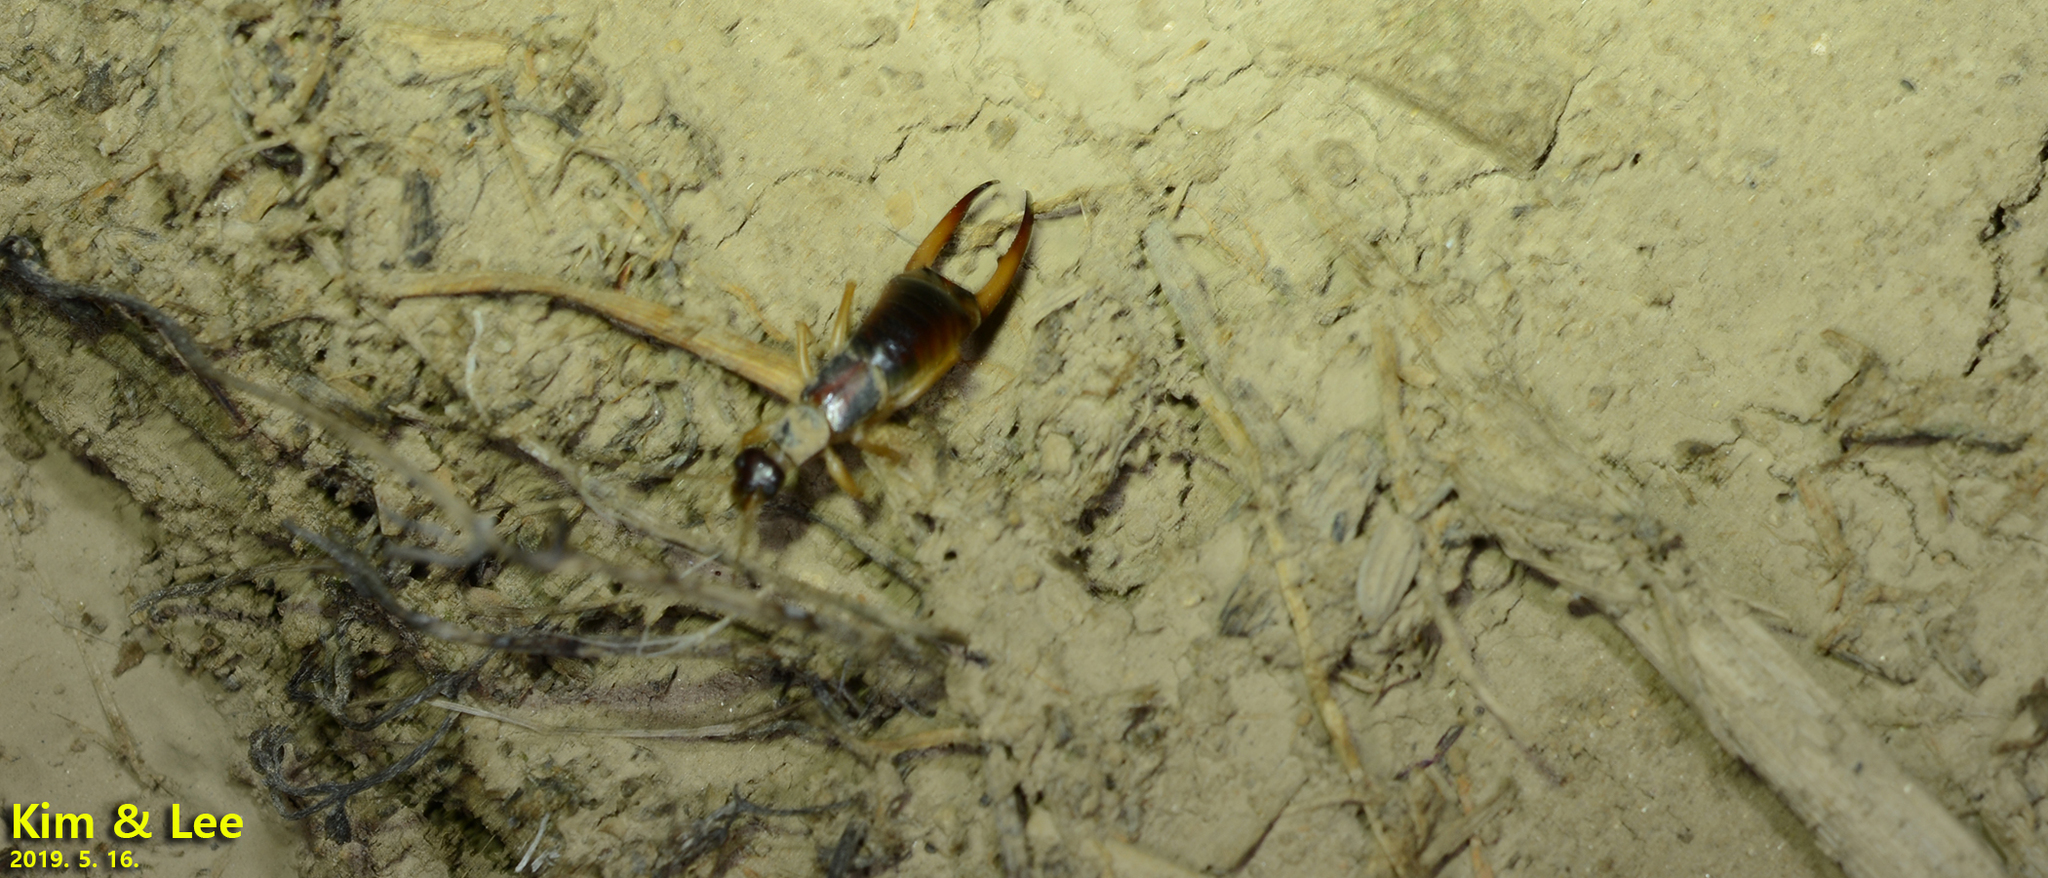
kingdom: Animalia
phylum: Arthropoda
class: Insecta
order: Dermaptera
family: Labiduridae
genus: Labidura
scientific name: Labidura riparia
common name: Striped earwig
